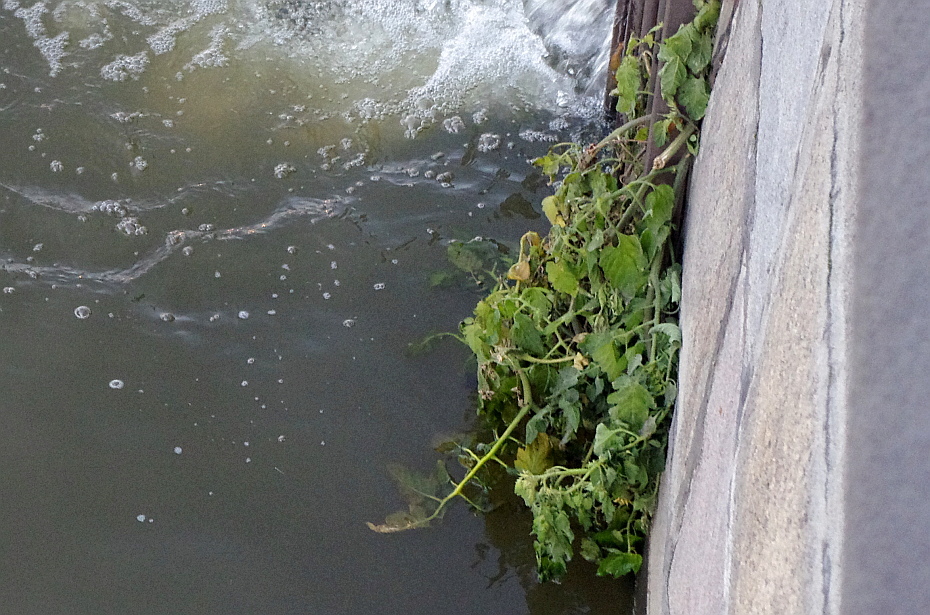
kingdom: Plantae
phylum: Tracheophyta
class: Magnoliopsida
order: Solanales
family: Solanaceae
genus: Solanum
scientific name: Solanum lycopersicum
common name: Garden tomato
